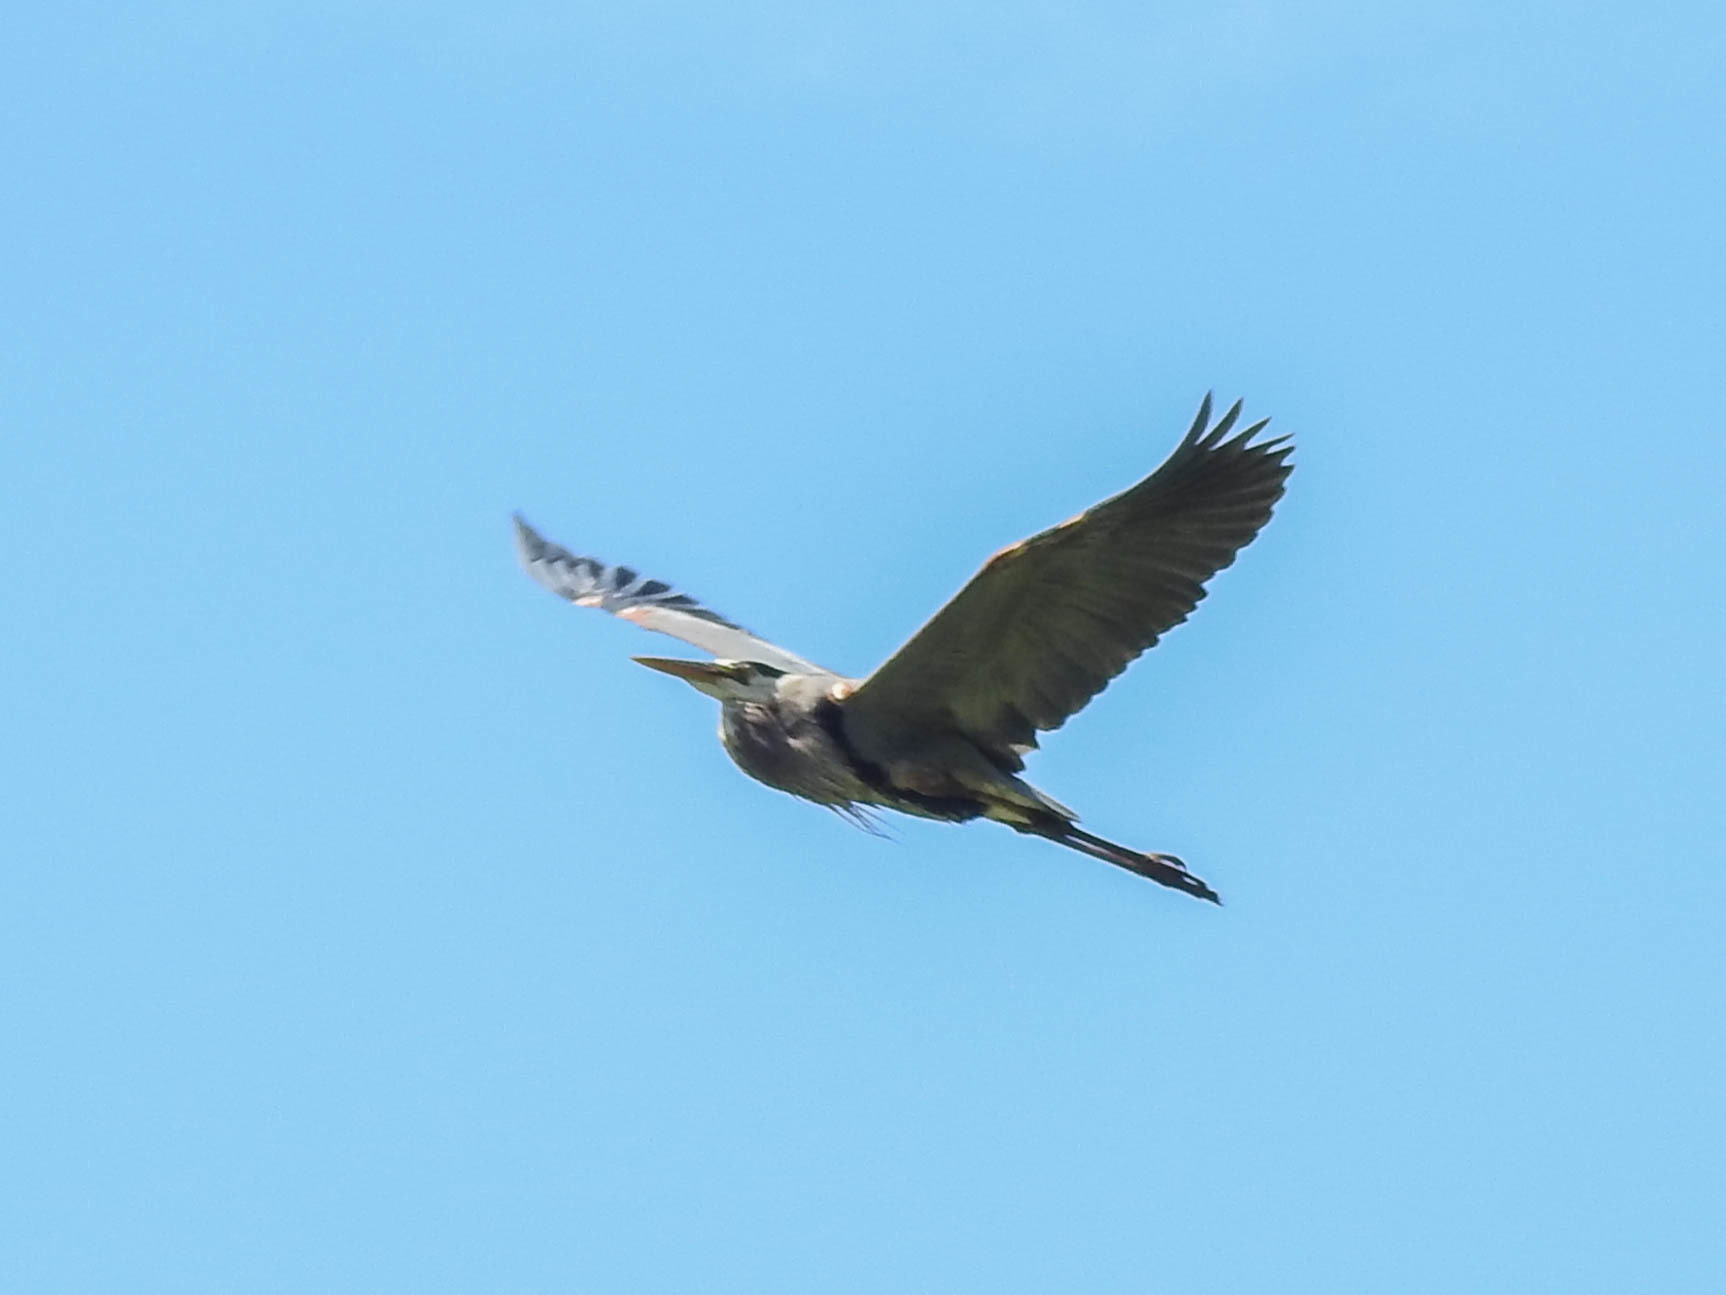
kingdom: Animalia
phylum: Chordata
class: Aves
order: Pelecaniformes
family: Ardeidae
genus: Ardea
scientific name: Ardea herodias
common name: Great blue heron
